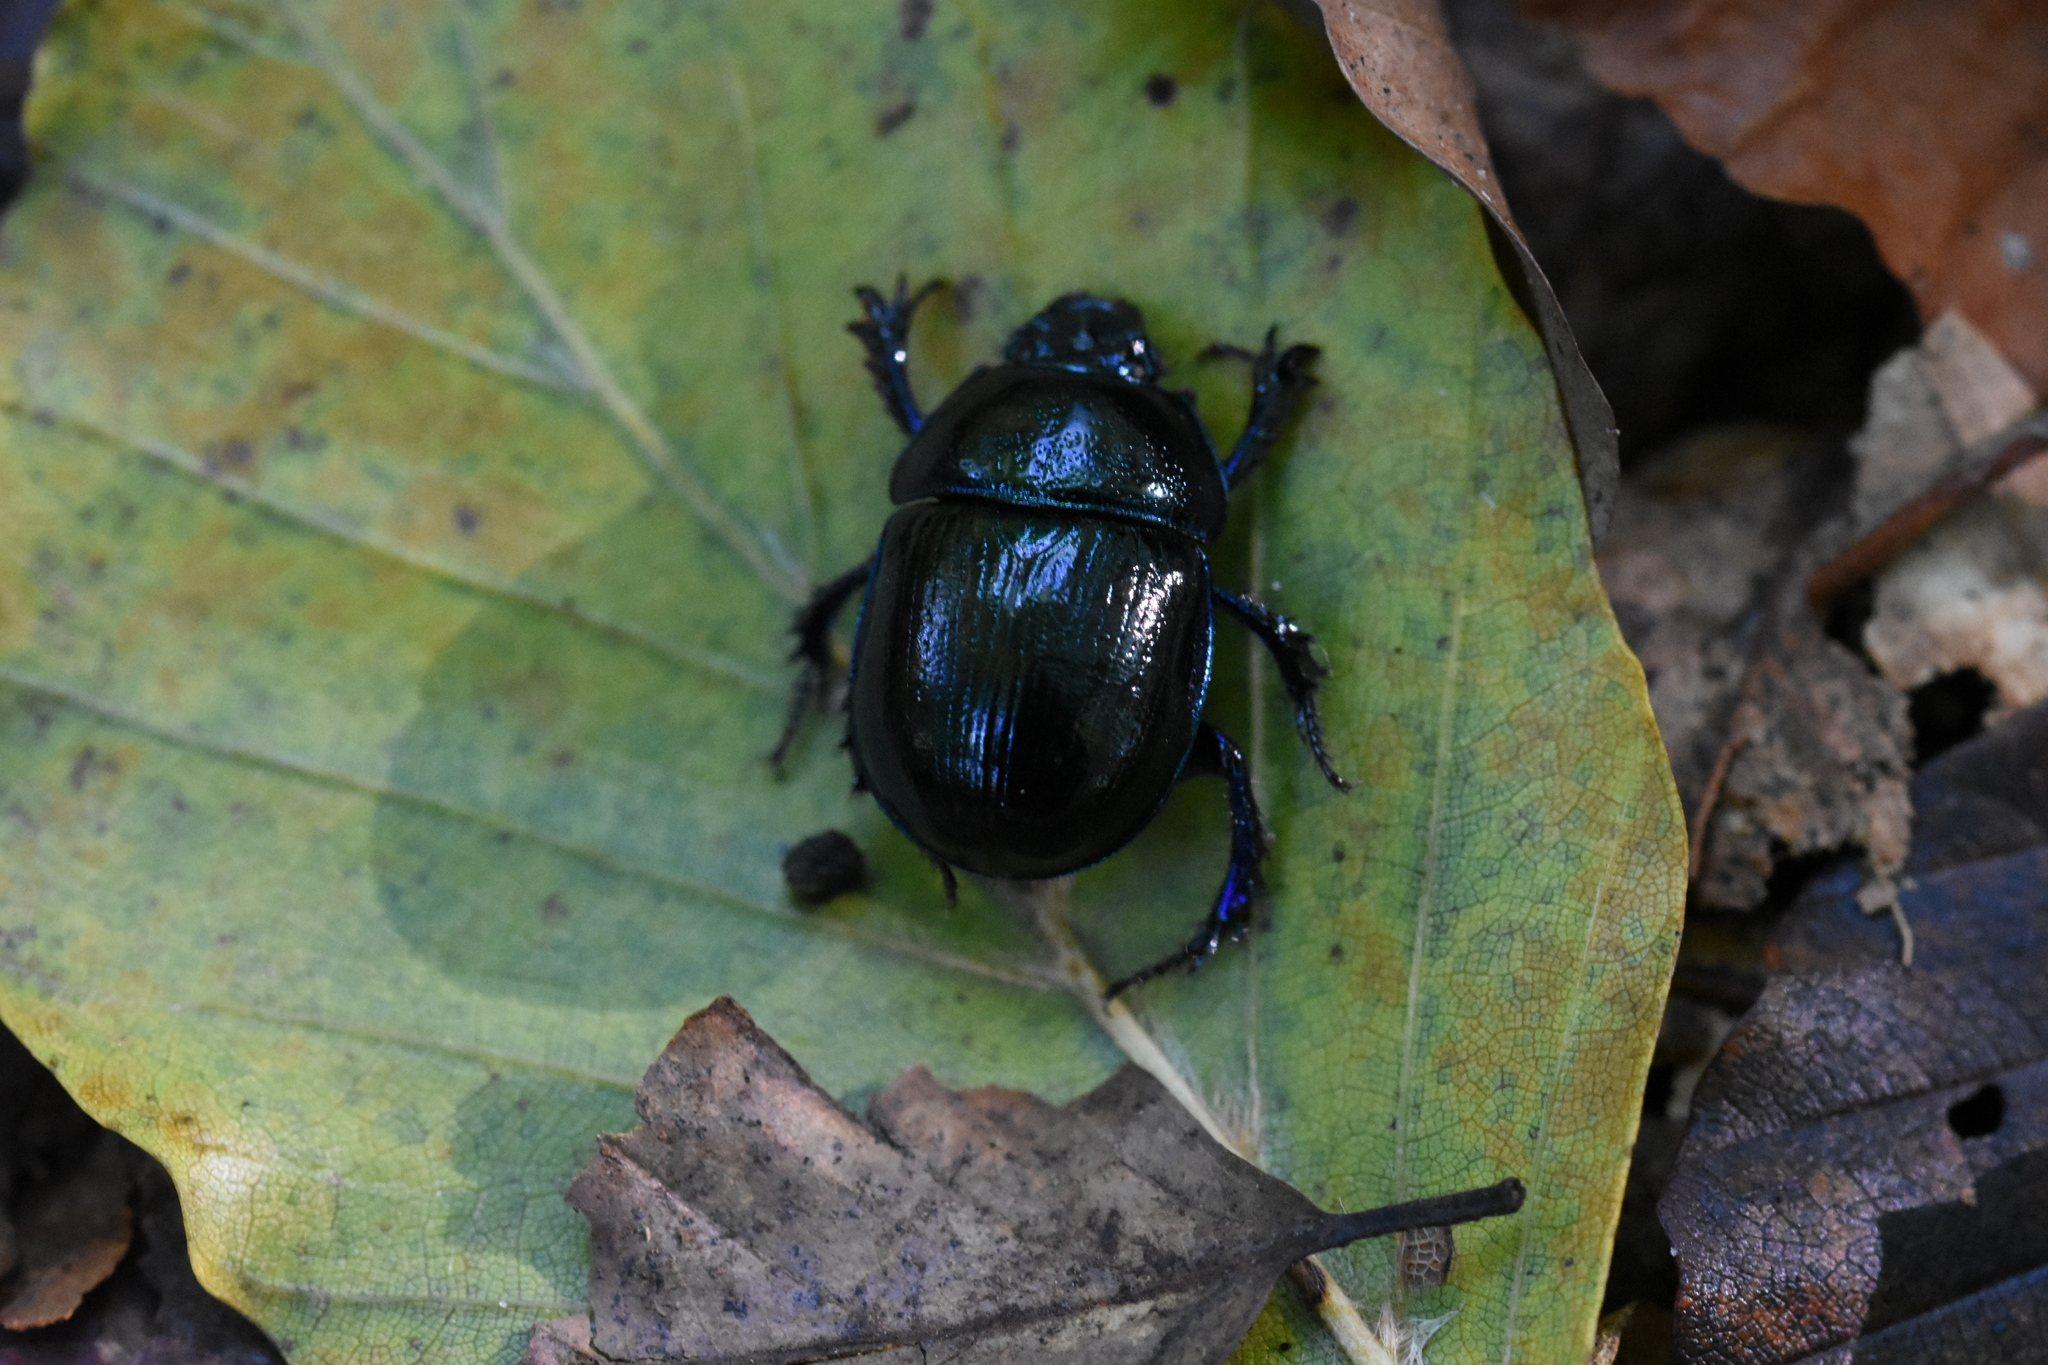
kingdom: Animalia
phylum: Arthropoda
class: Insecta
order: Coleoptera
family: Geotrupidae
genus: Anoplotrupes
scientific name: Anoplotrupes stercorosus
